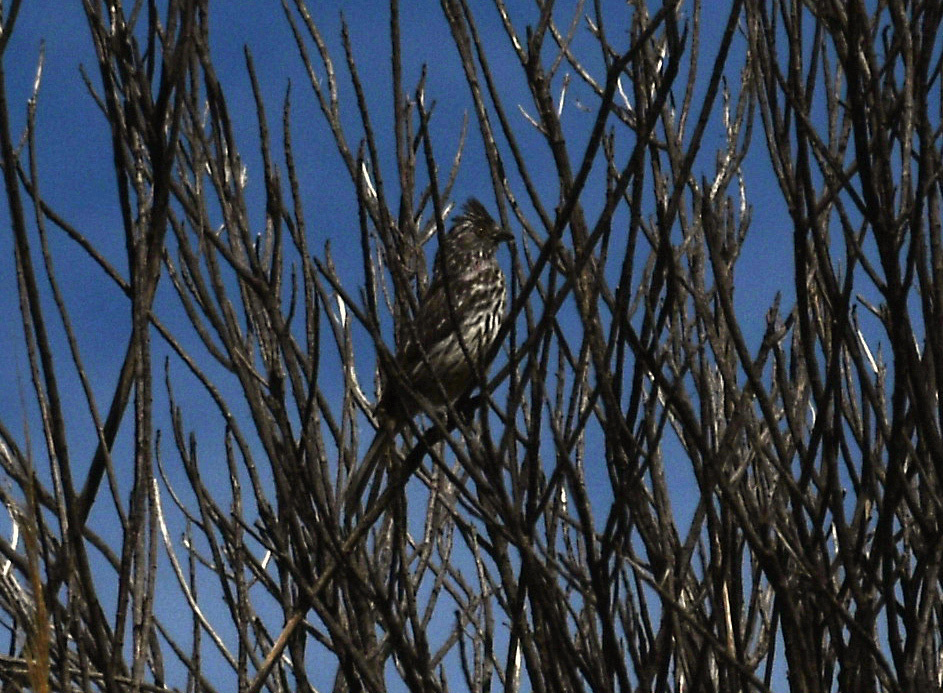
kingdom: Animalia
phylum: Chordata
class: Aves
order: Passeriformes
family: Cotingidae
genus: Phytotoma
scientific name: Phytotoma rutila
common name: White-tipped plantcutter
